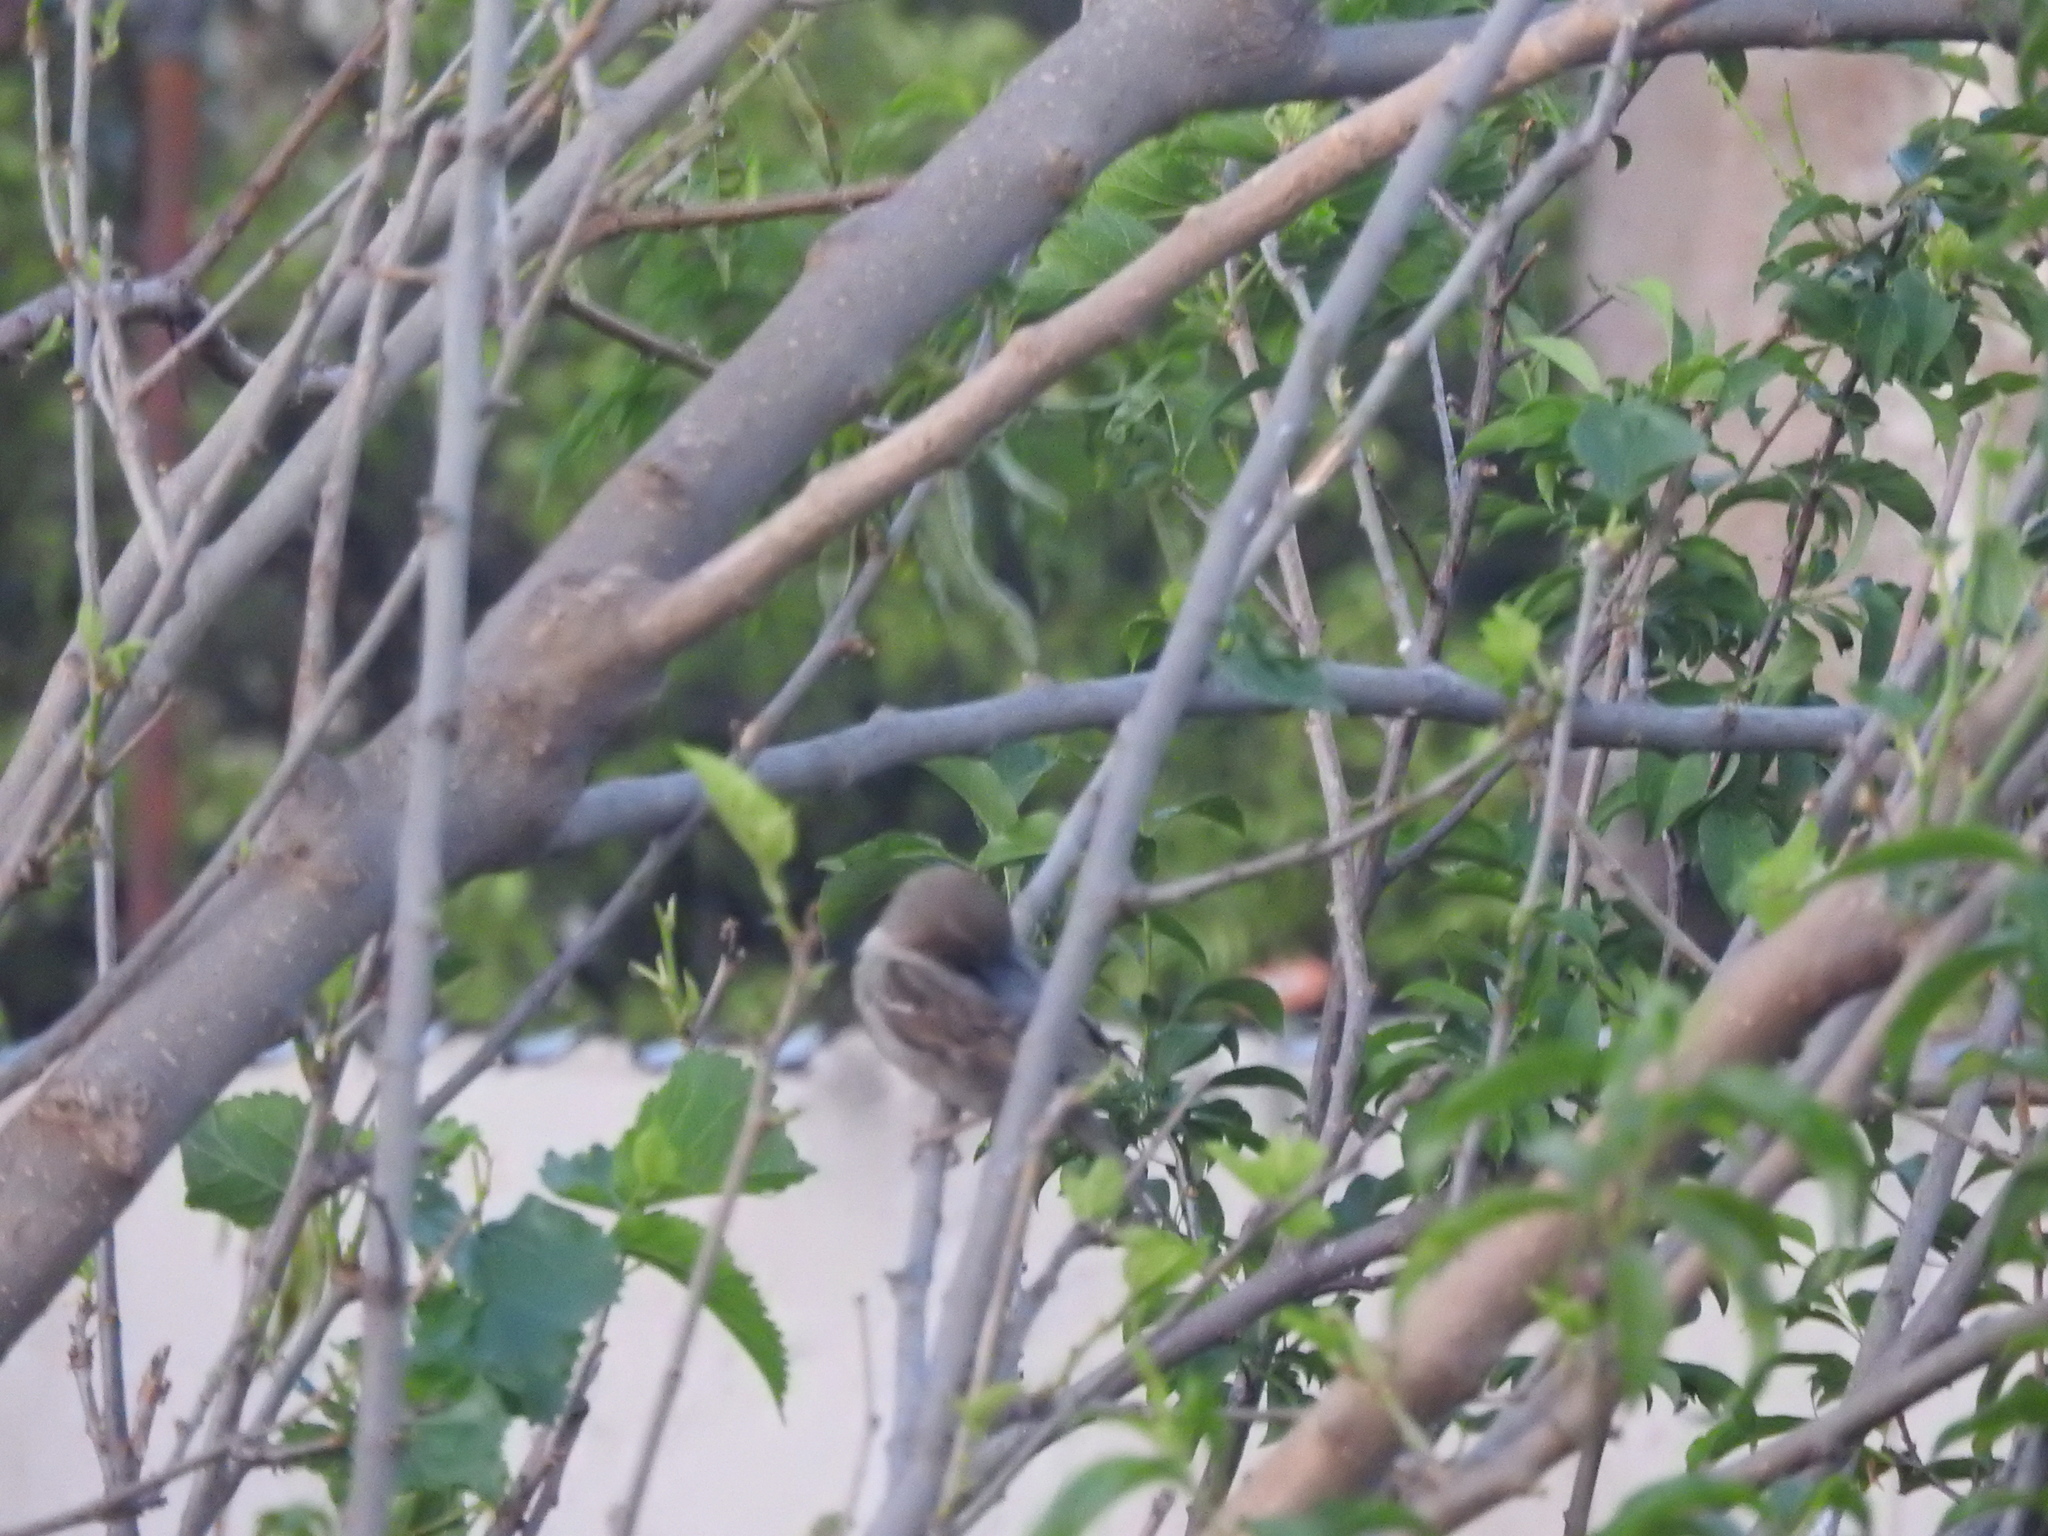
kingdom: Animalia
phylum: Chordata
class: Aves
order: Passeriformes
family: Passeridae
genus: Passer
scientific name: Passer domesticus
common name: House sparrow
